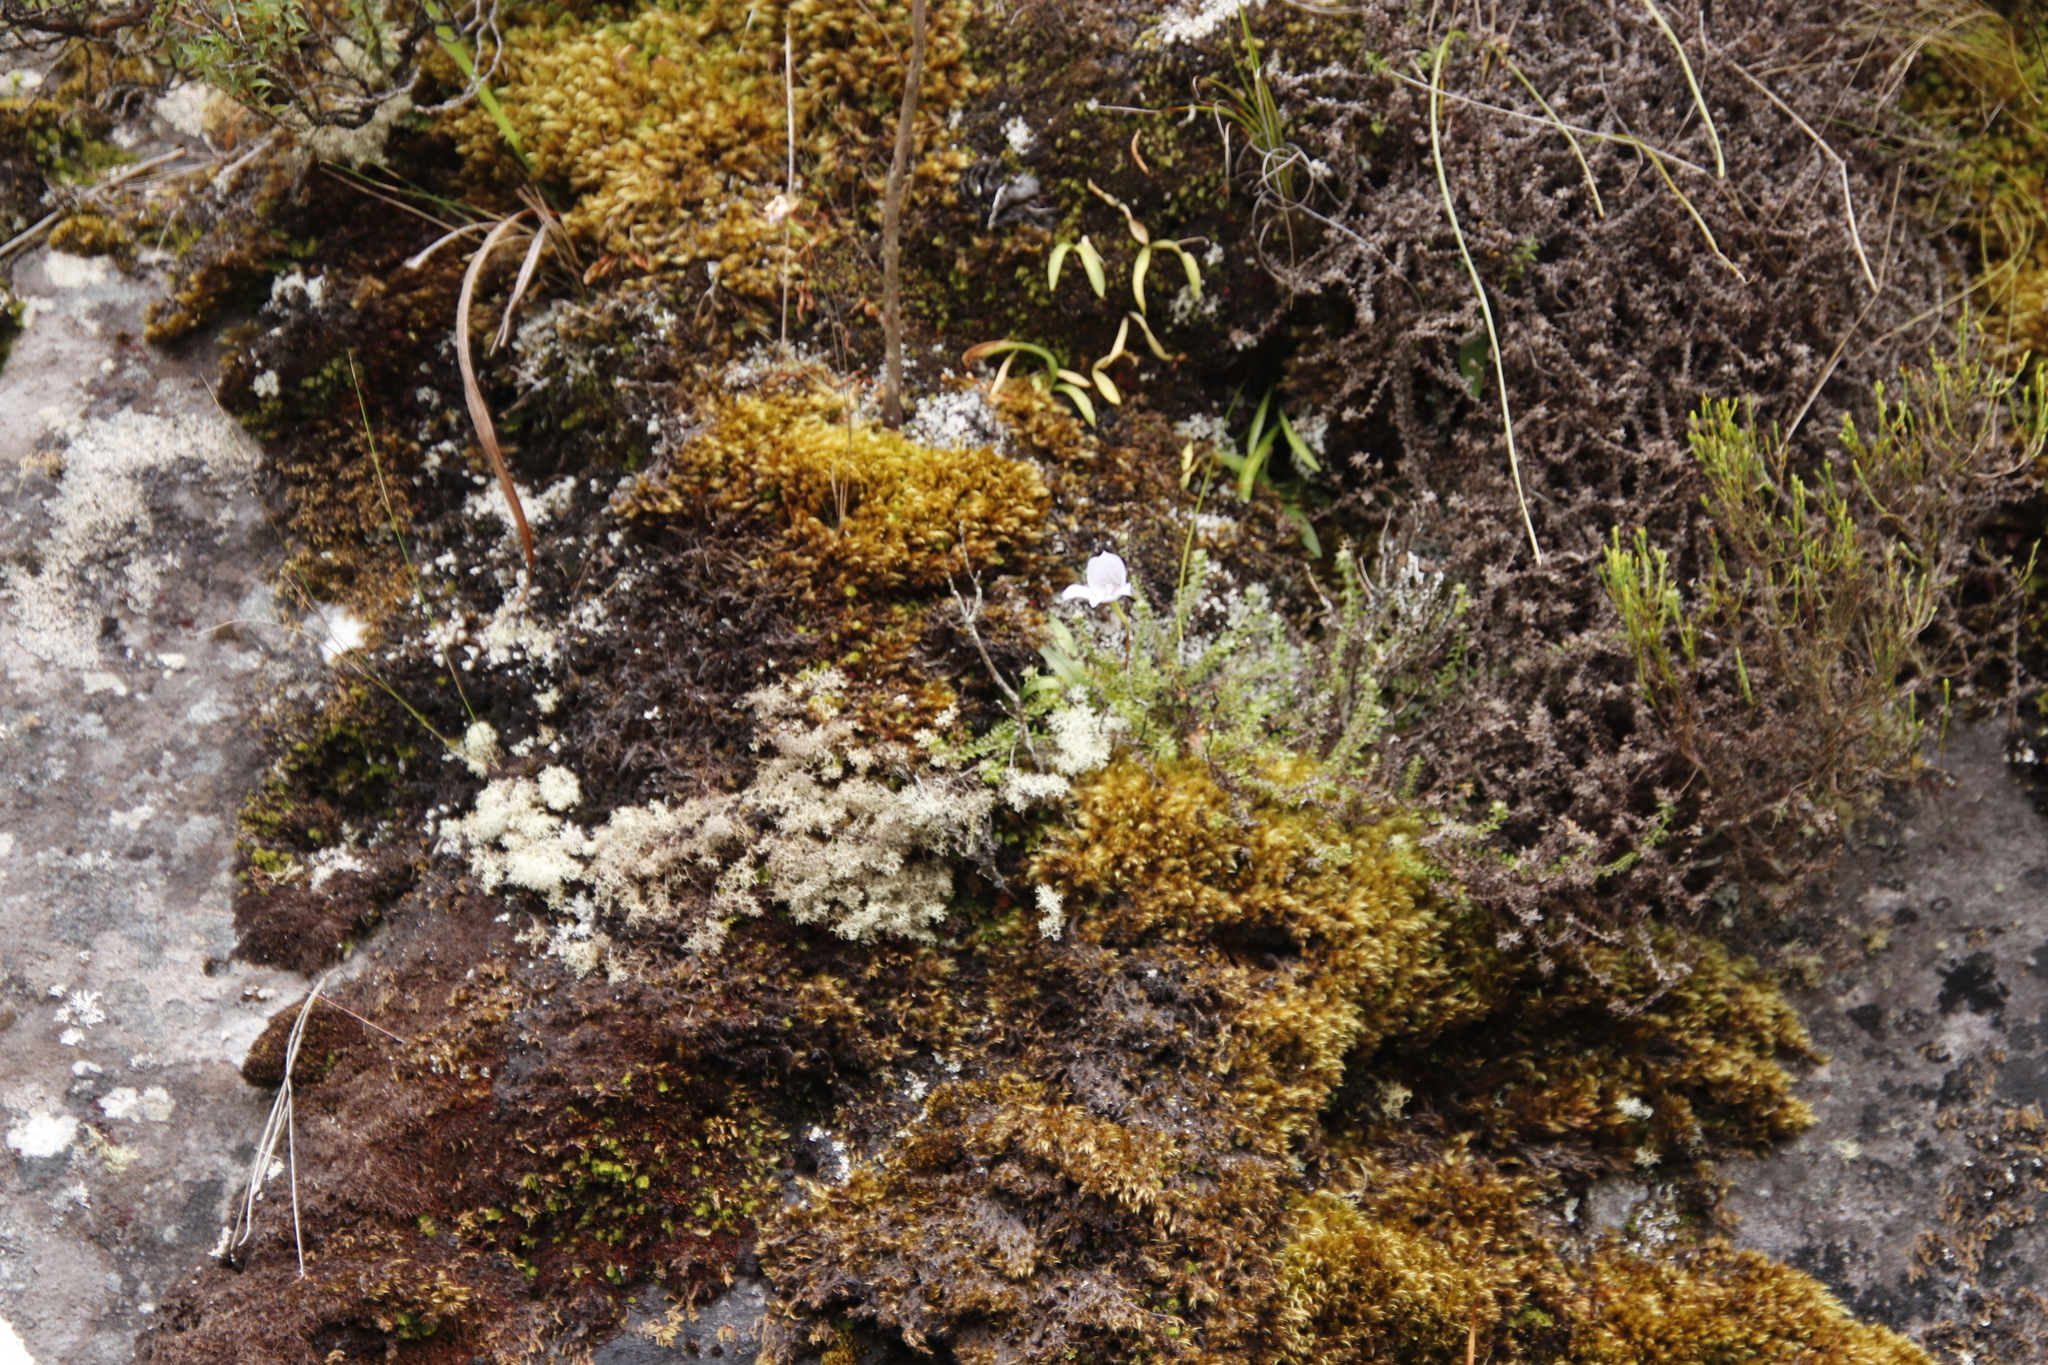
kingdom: Plantae
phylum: Tracheophyta
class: Liliopsida
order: Asparagales
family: Orchidaceae
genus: Disa
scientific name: Disa longicornu
